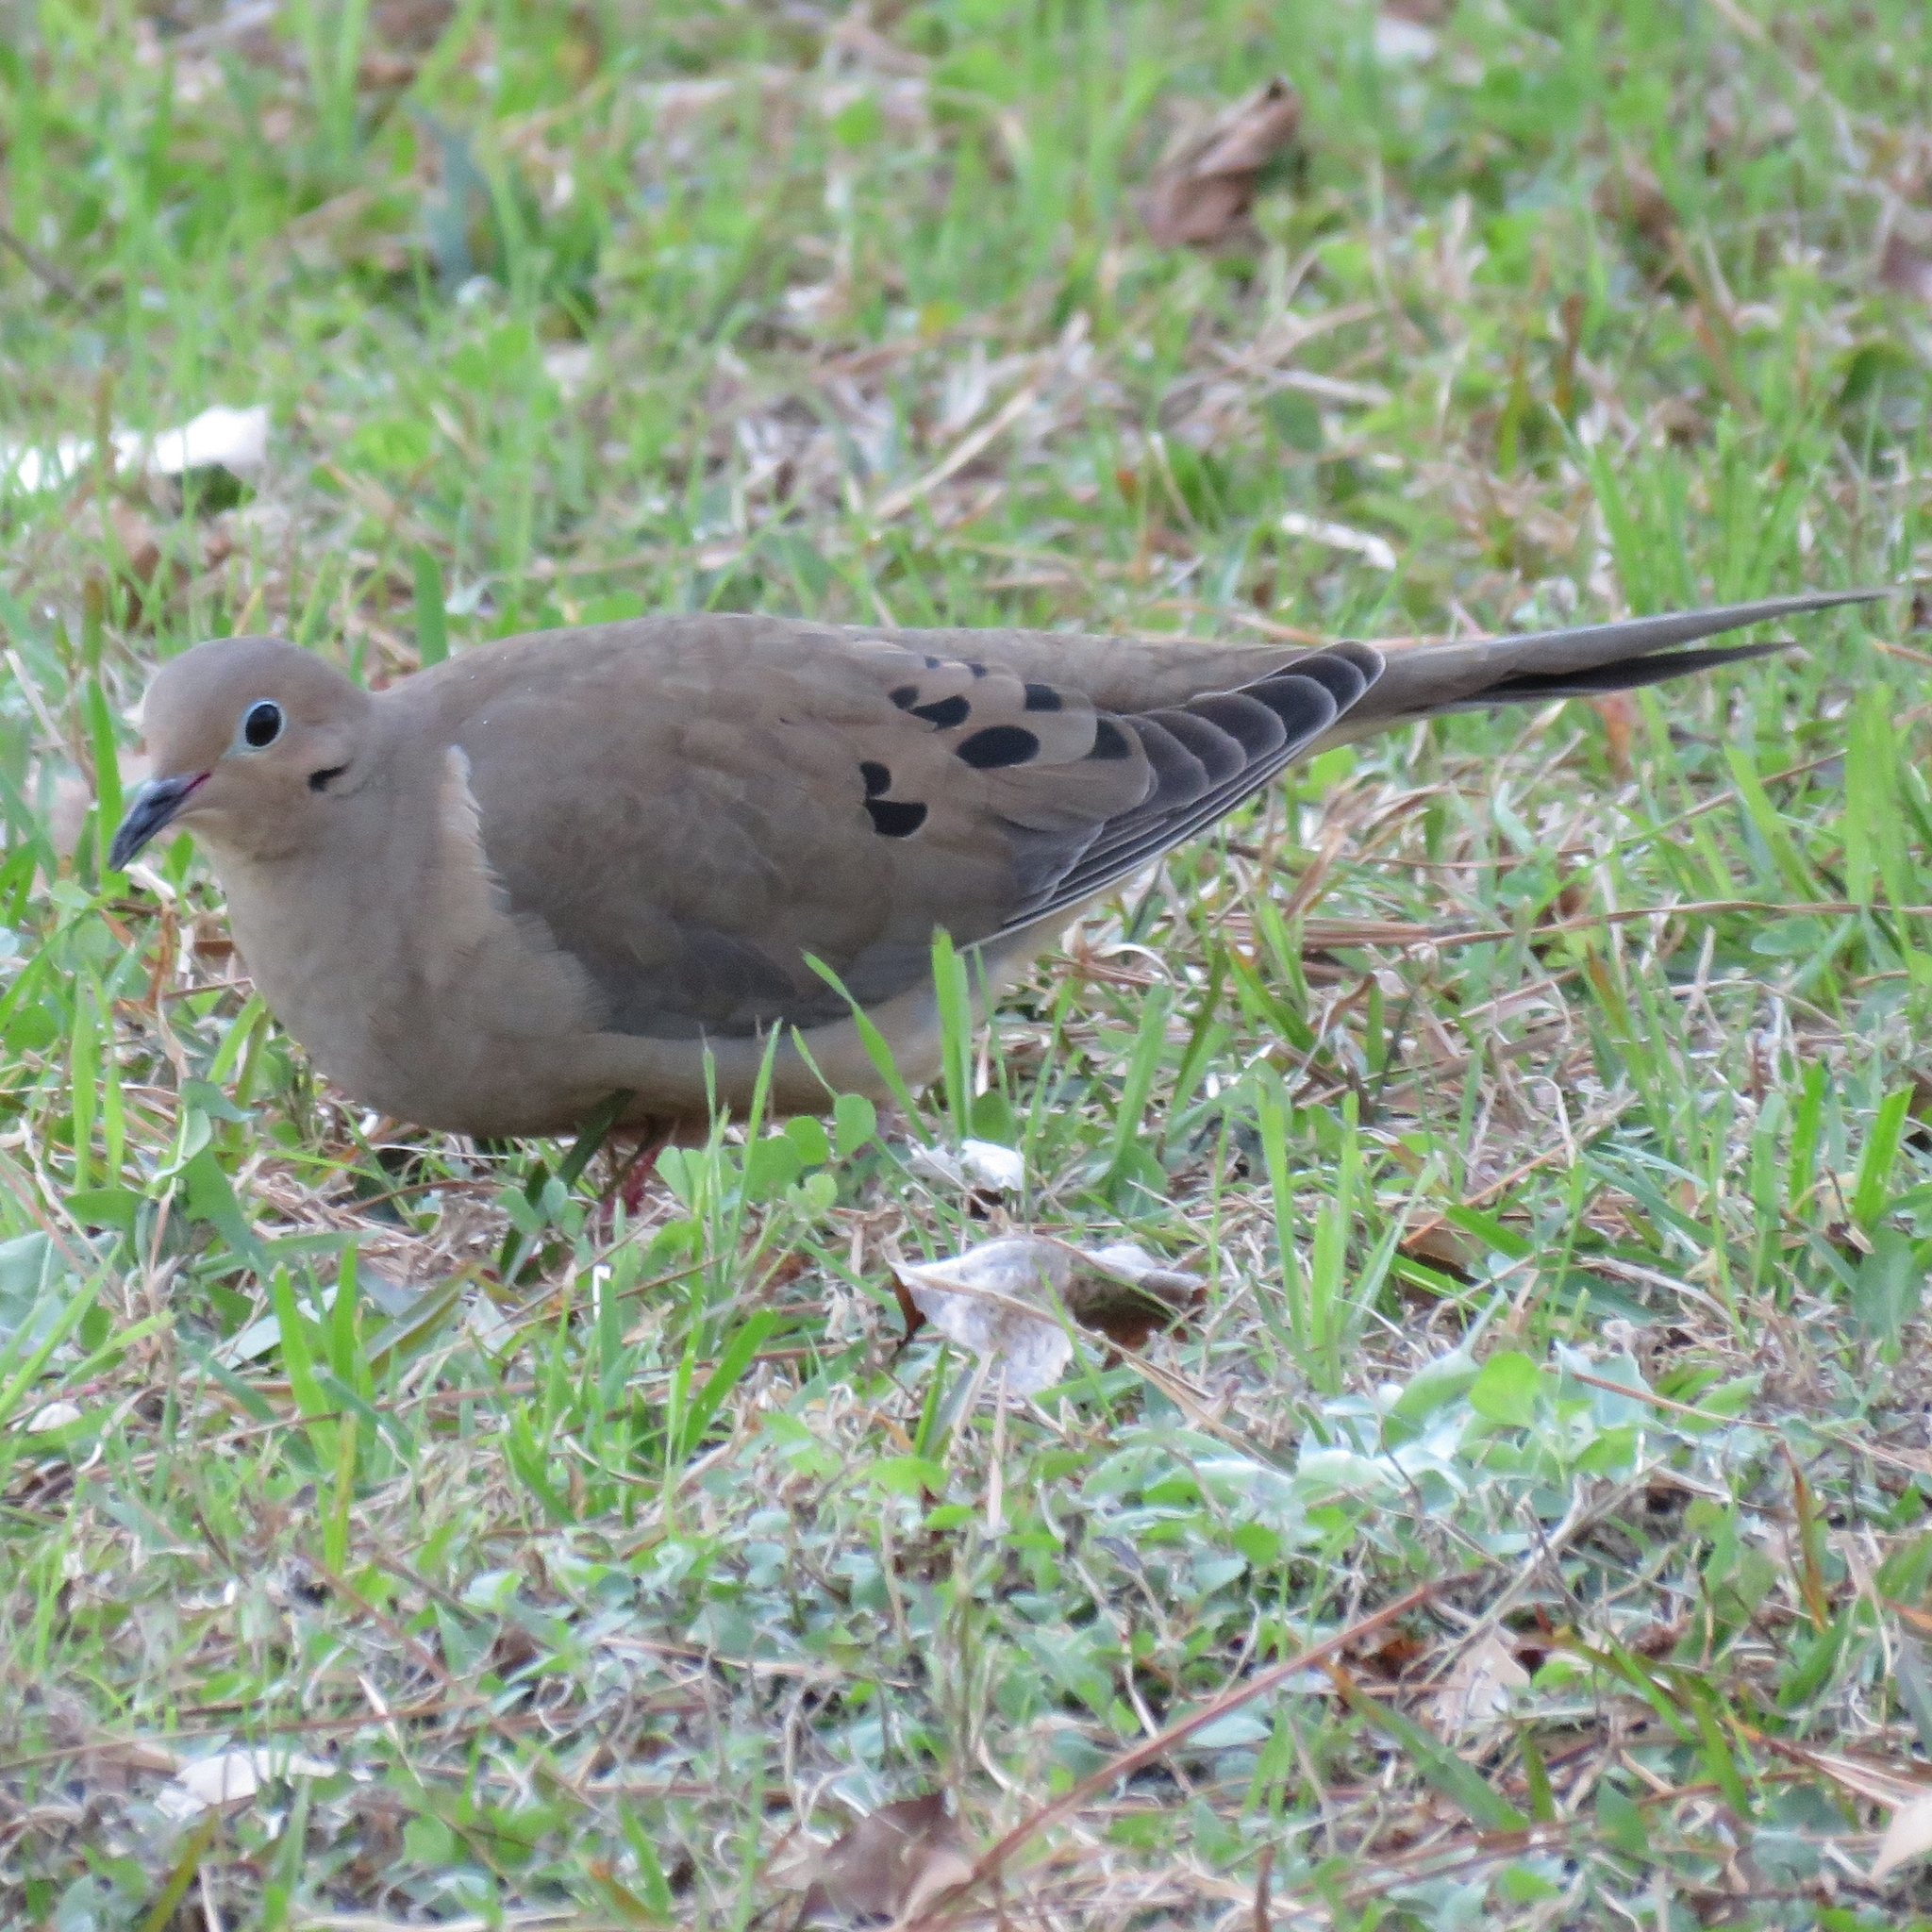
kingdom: Animalia
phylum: Chordata
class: Aves
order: Columbiformes
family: Columbidae
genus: Zenaida
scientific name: Zenaida macroura
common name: Mourning dove
